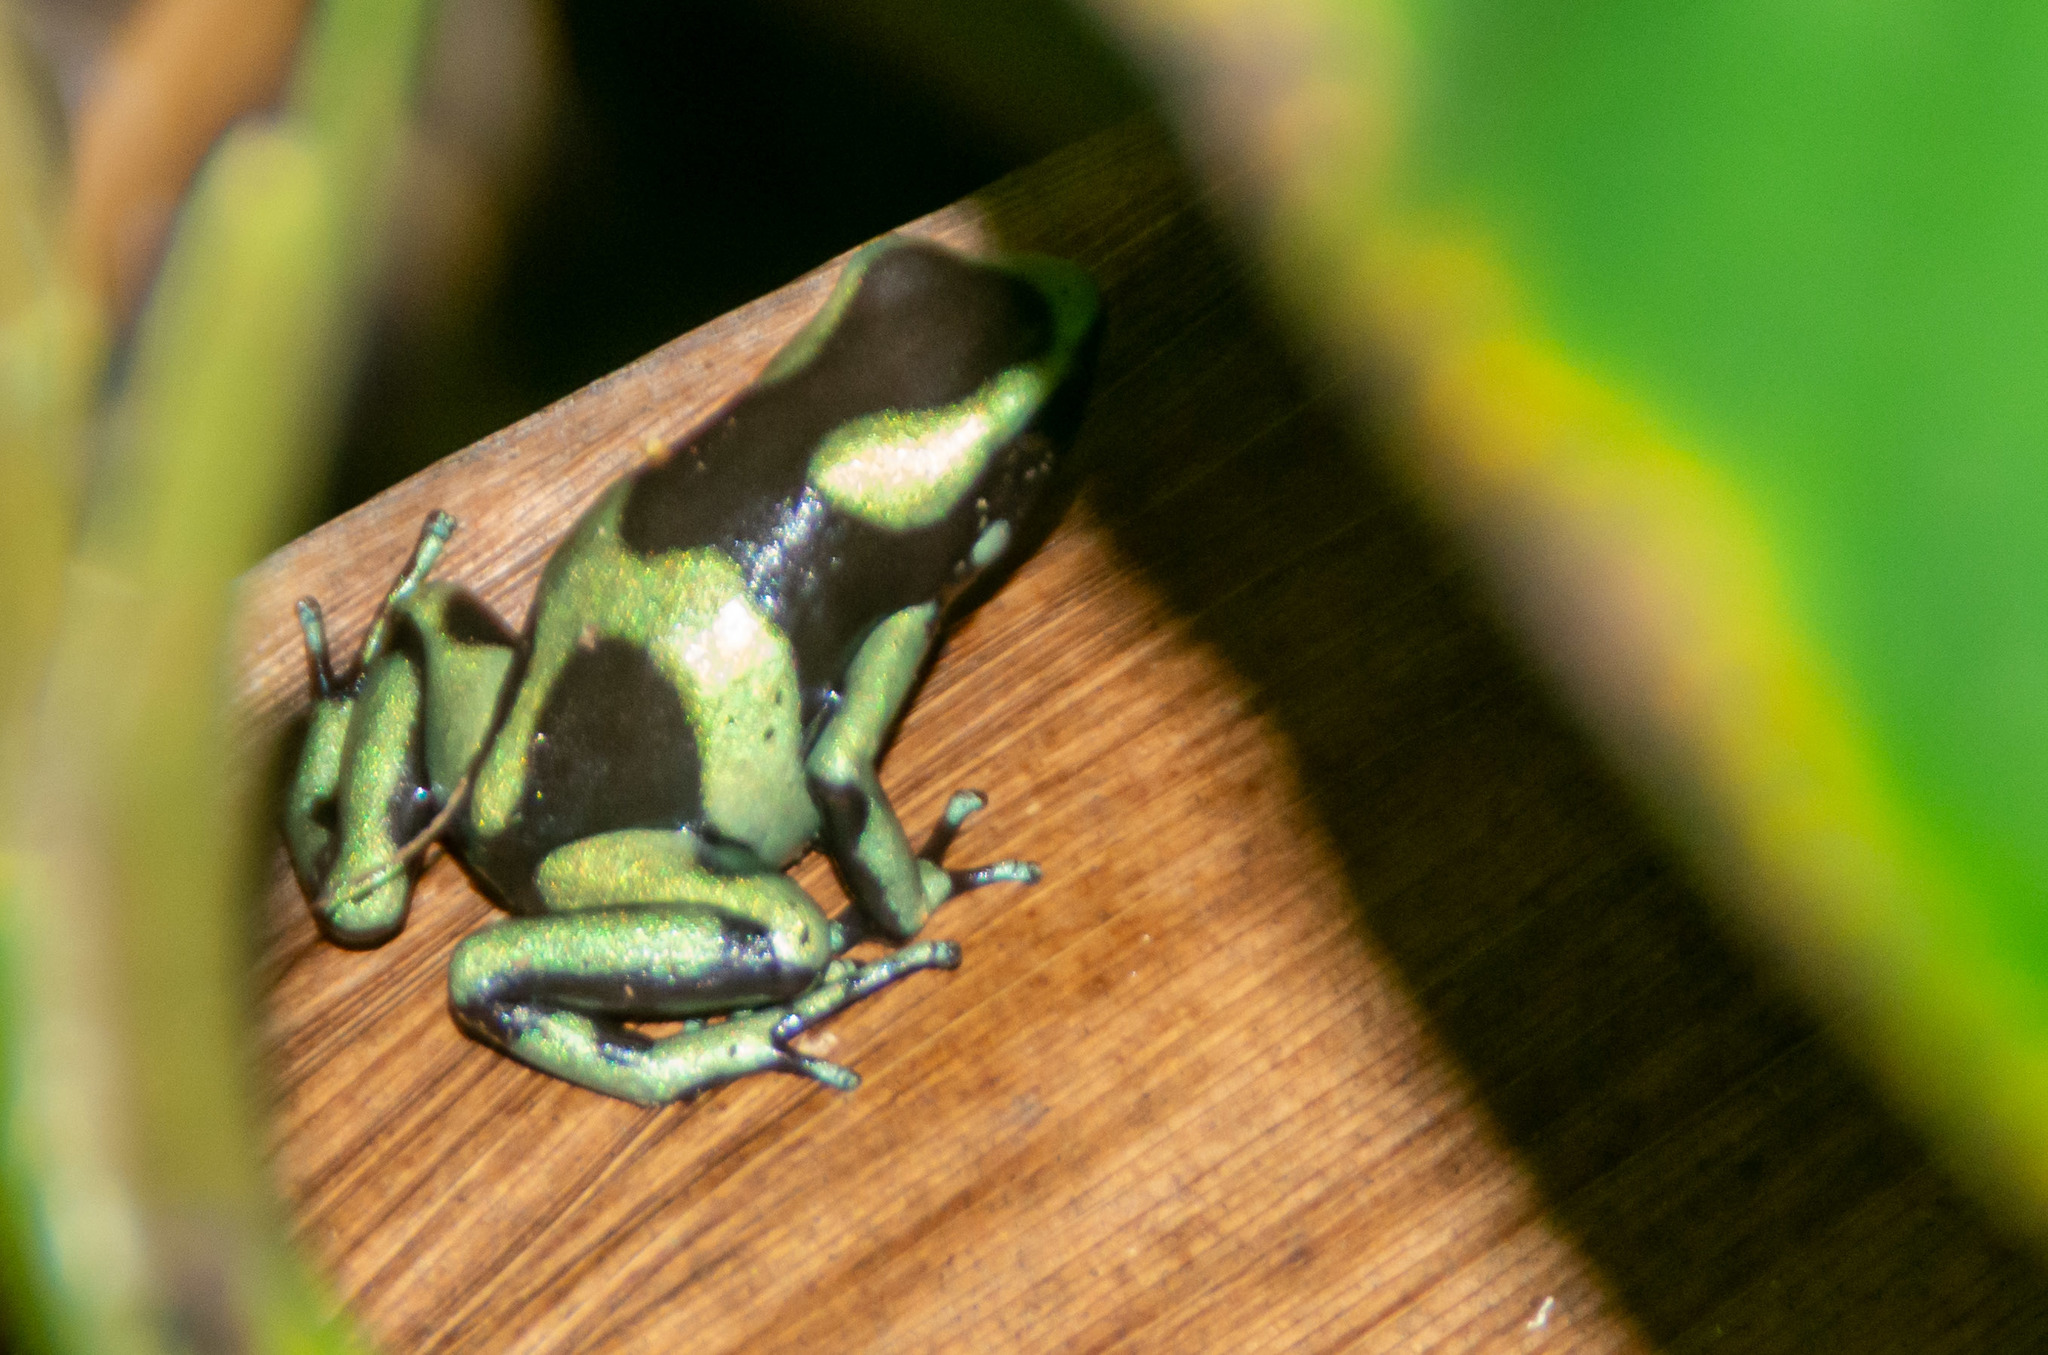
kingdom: Animalia
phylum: Chordata
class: Amphibia
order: Anura
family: Dendrobatidae
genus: Dendrobates
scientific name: Dendrobates auratus
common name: Green and black poison dart frog
